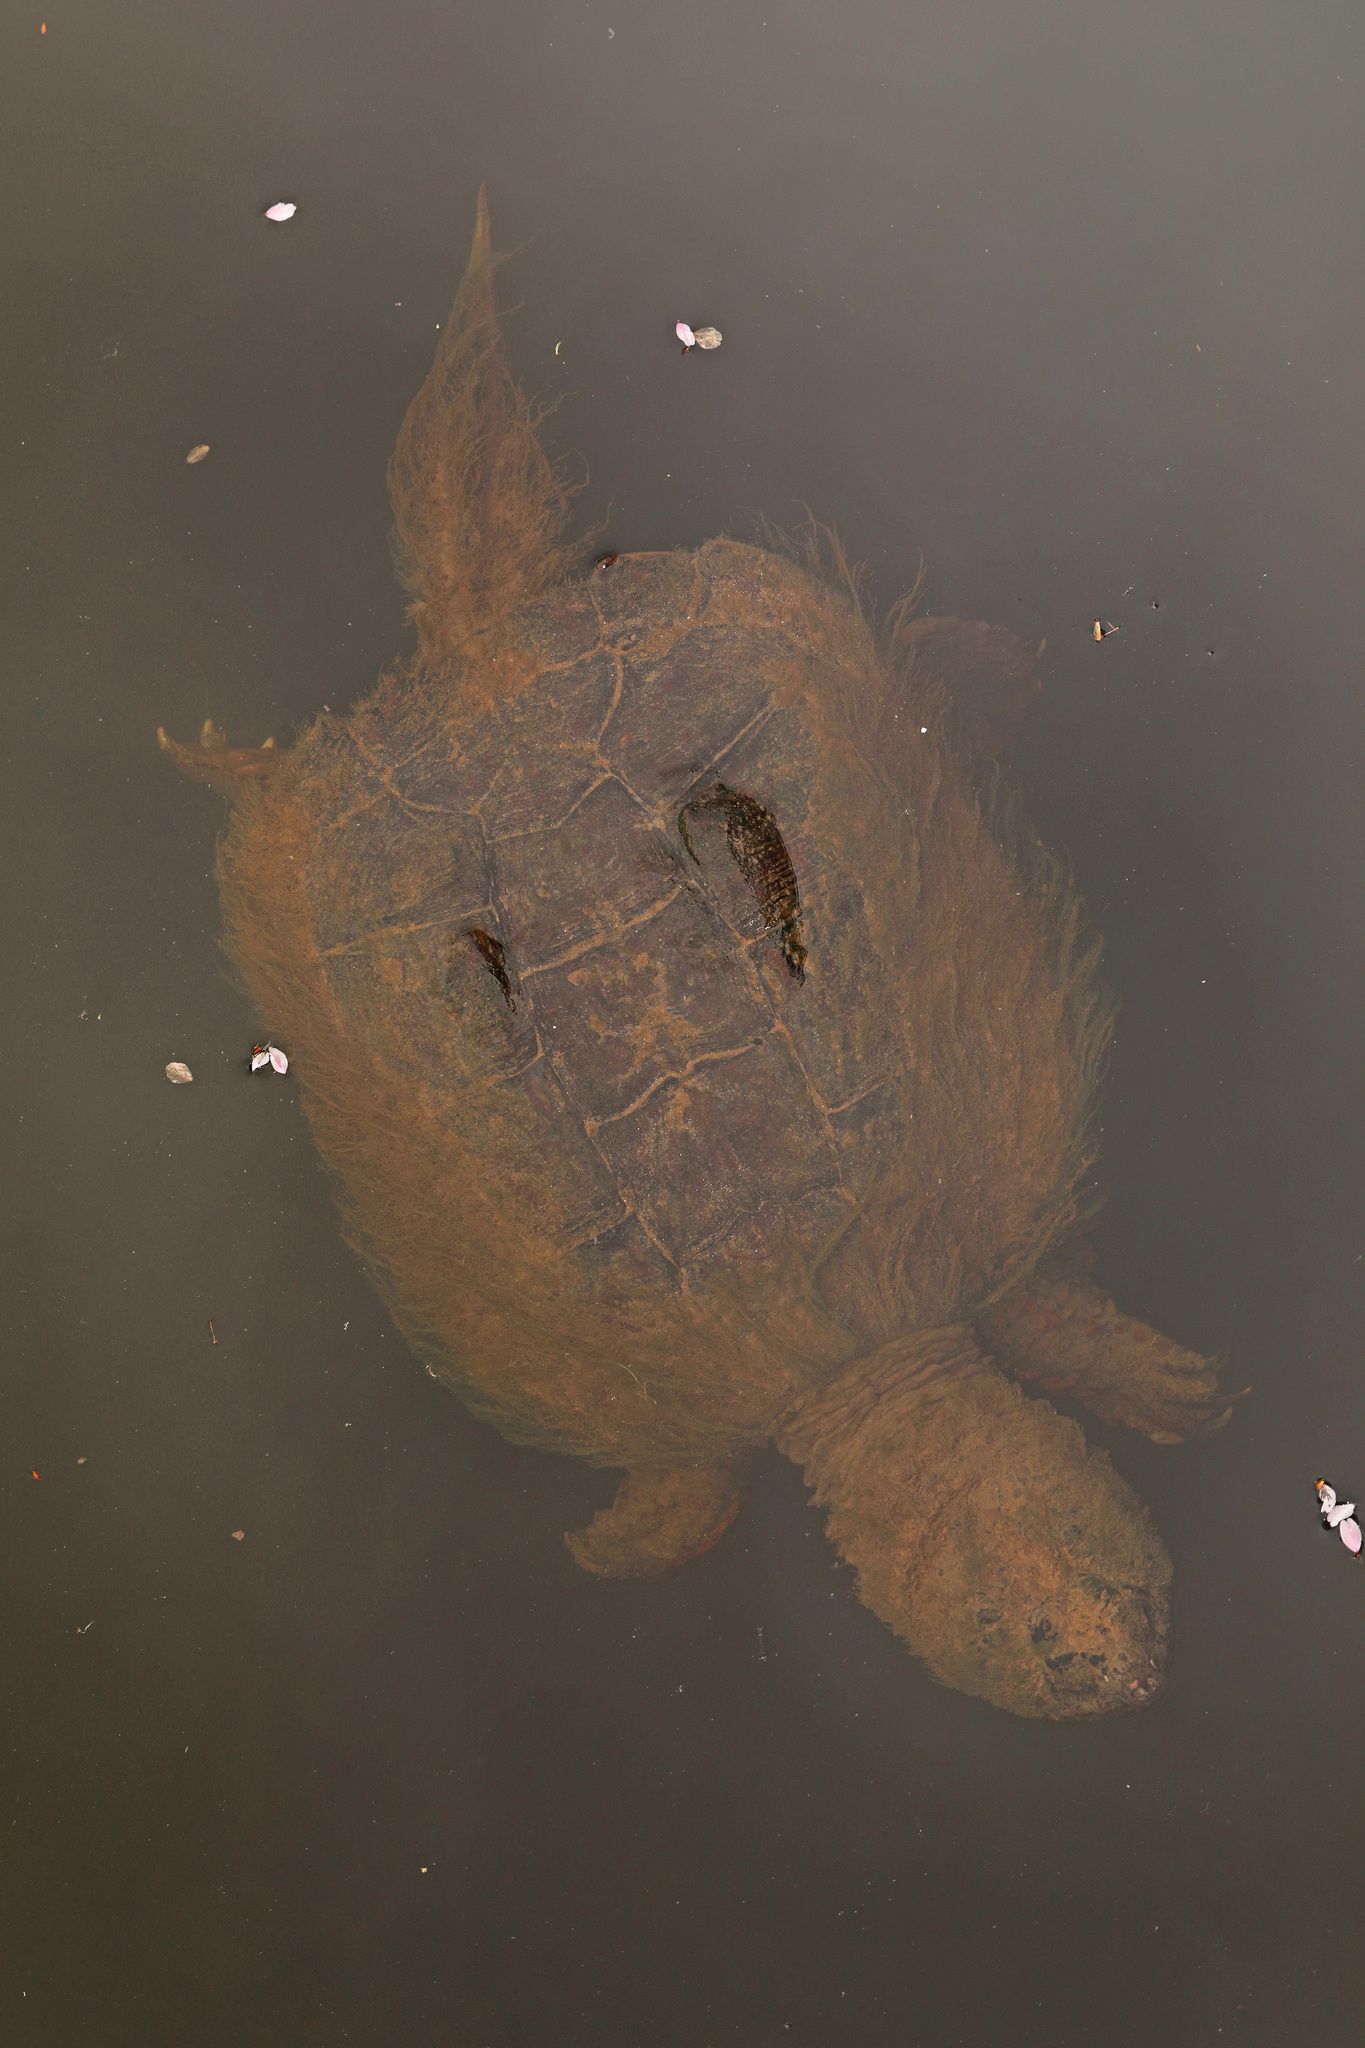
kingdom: Animalia
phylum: Chordata
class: Testudines
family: Chelydridae
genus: Chelydra
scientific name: Chelydra serpentina
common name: Common snapping turtle
